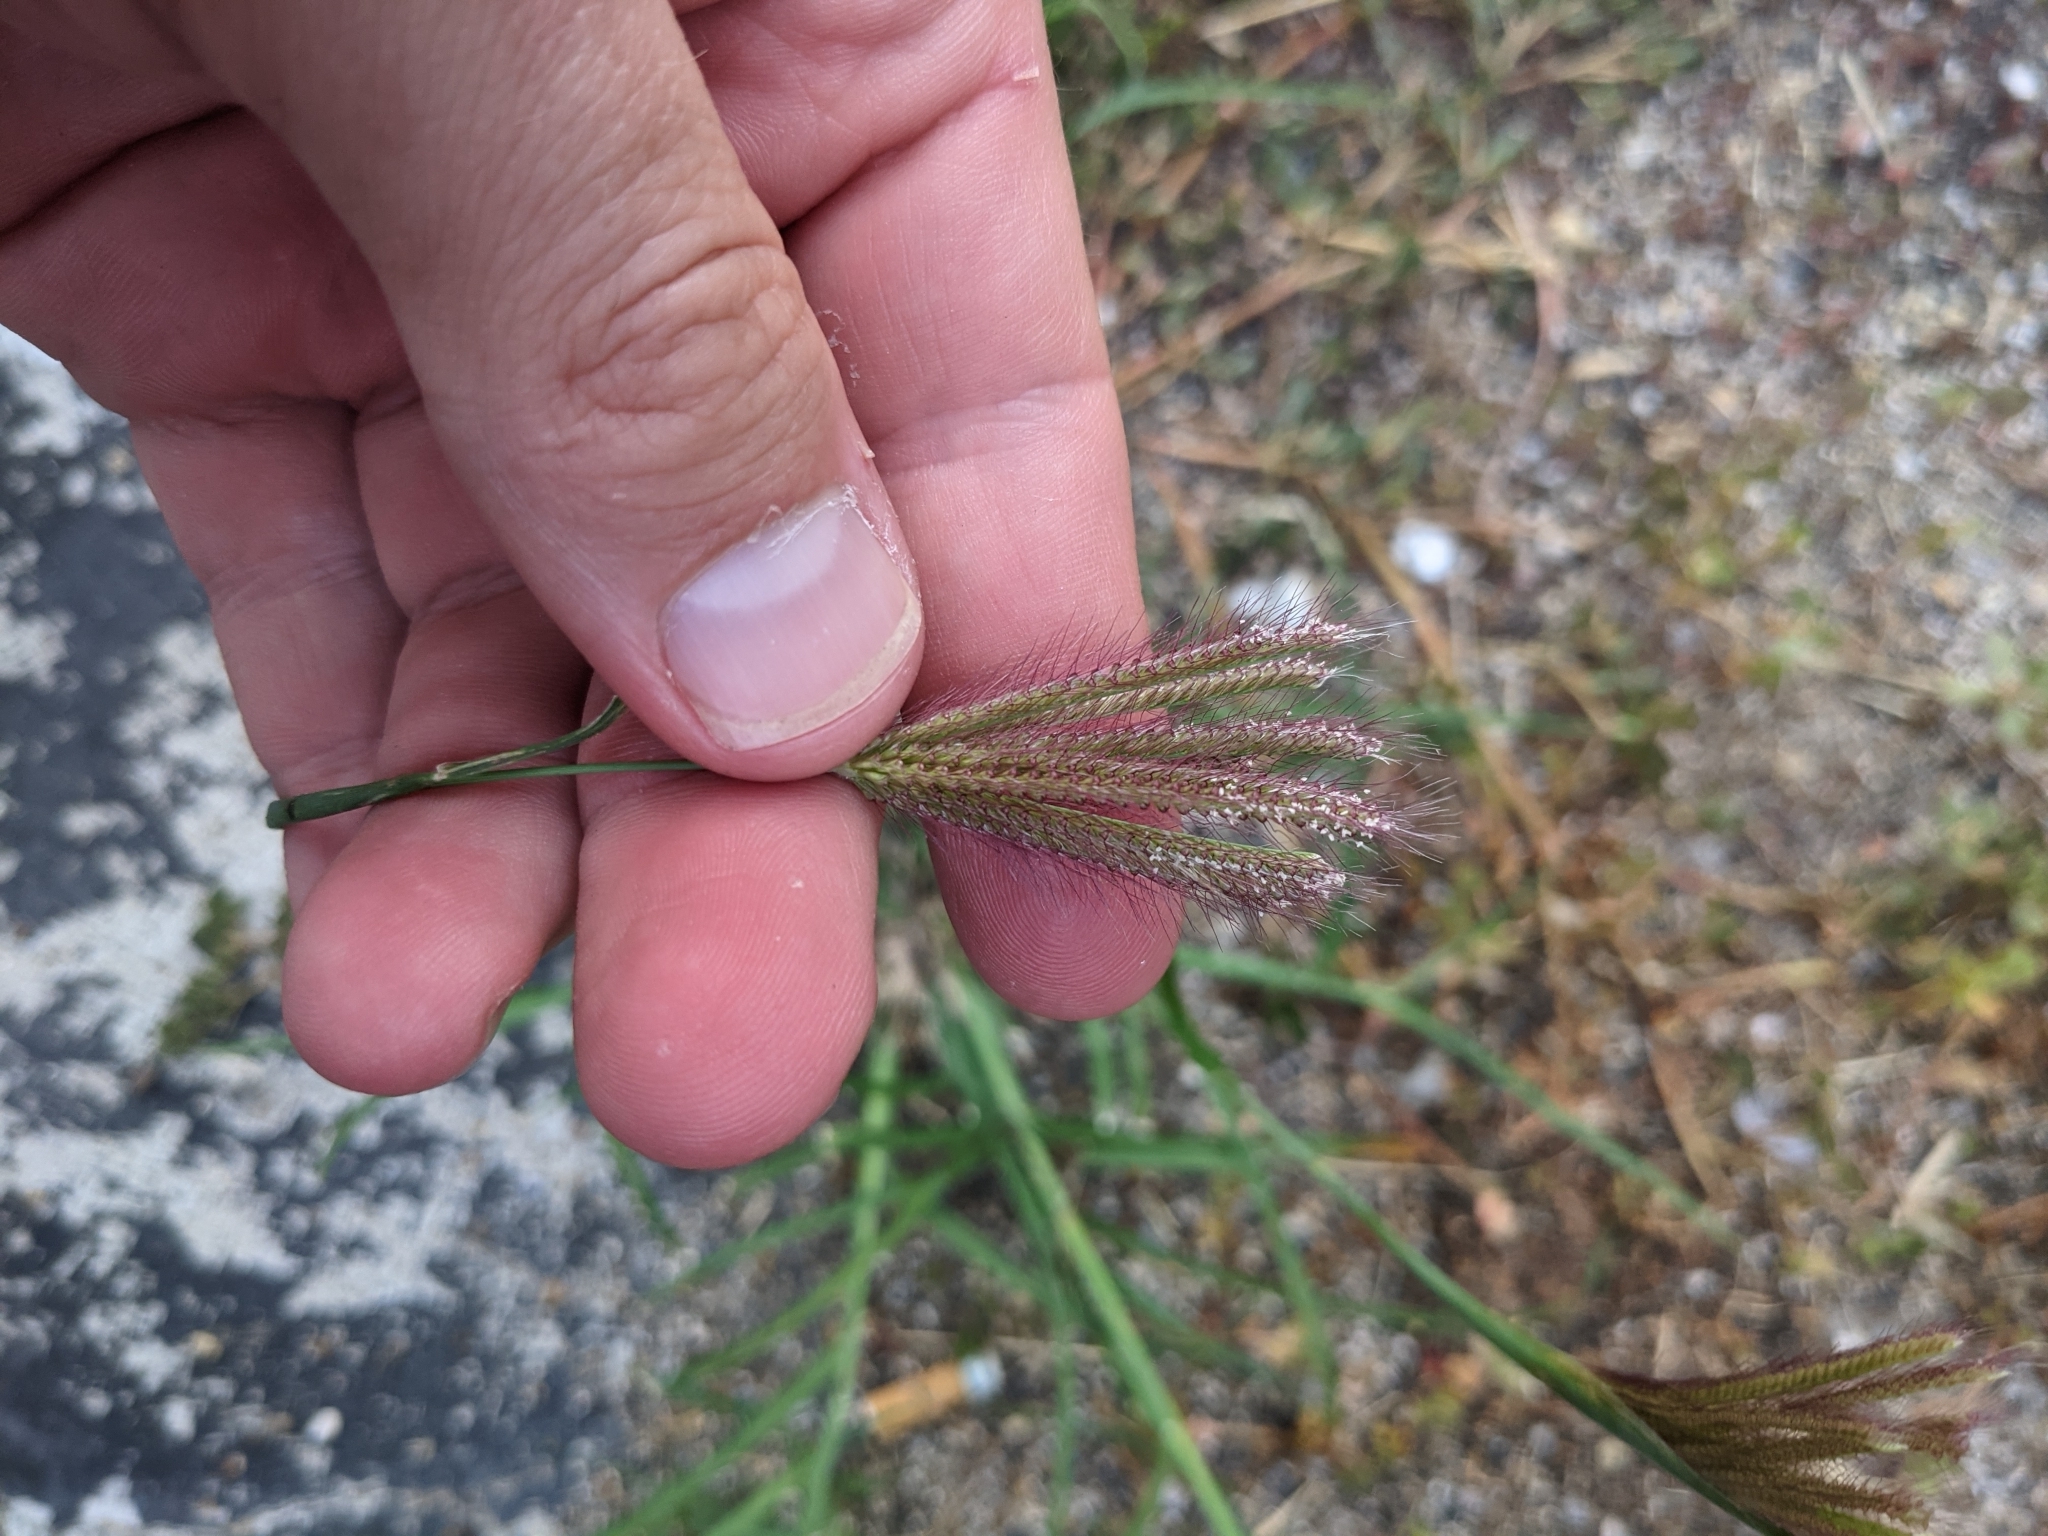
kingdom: Plantae
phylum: Tracheophyta
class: Liliopsida
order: Poales
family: Poaceae
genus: Chloris
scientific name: Chloris barbata
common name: Swollen fingergrass
